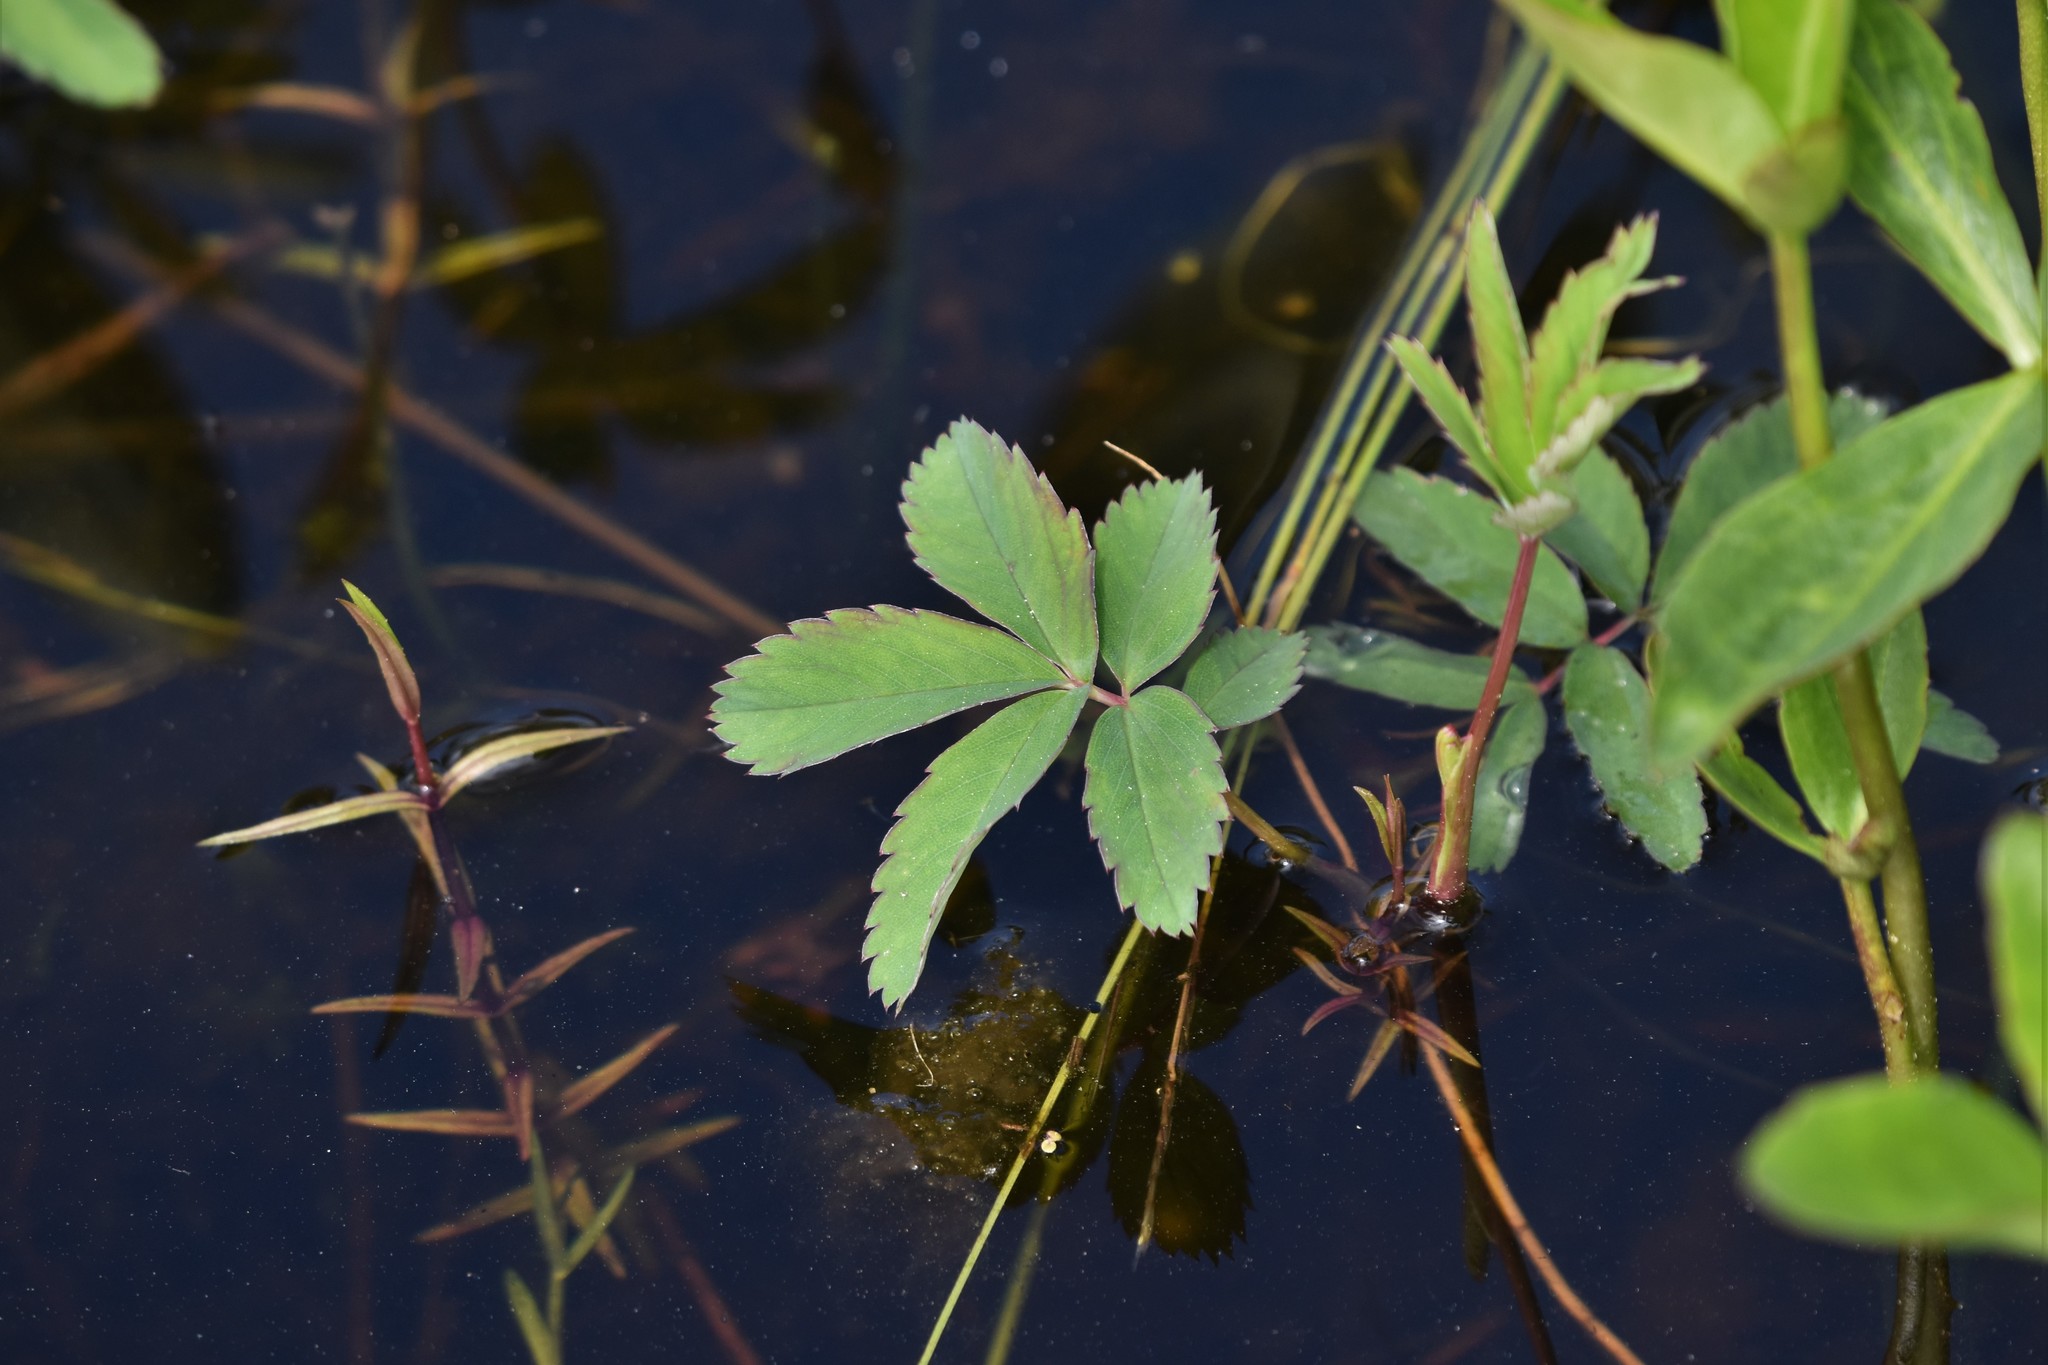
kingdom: Plantae
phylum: Tracheophyta
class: Magnoliopsida
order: Rosales
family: Rosaceae
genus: Comarum
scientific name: Comarum palustre
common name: Marsh cinquefoil
